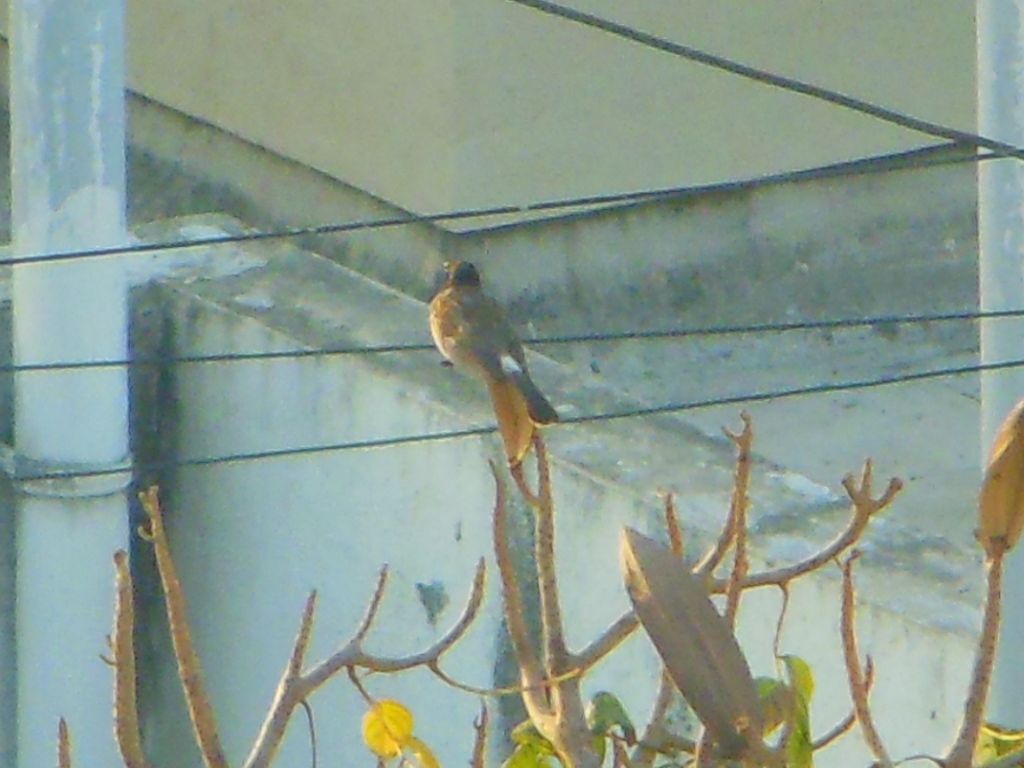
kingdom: Animalia
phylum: Chordata
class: Aves
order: Passeriformes
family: Pycnonotidae
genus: Pycnonotus
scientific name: Pycnonotus cafer
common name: Red-vented bulbul
